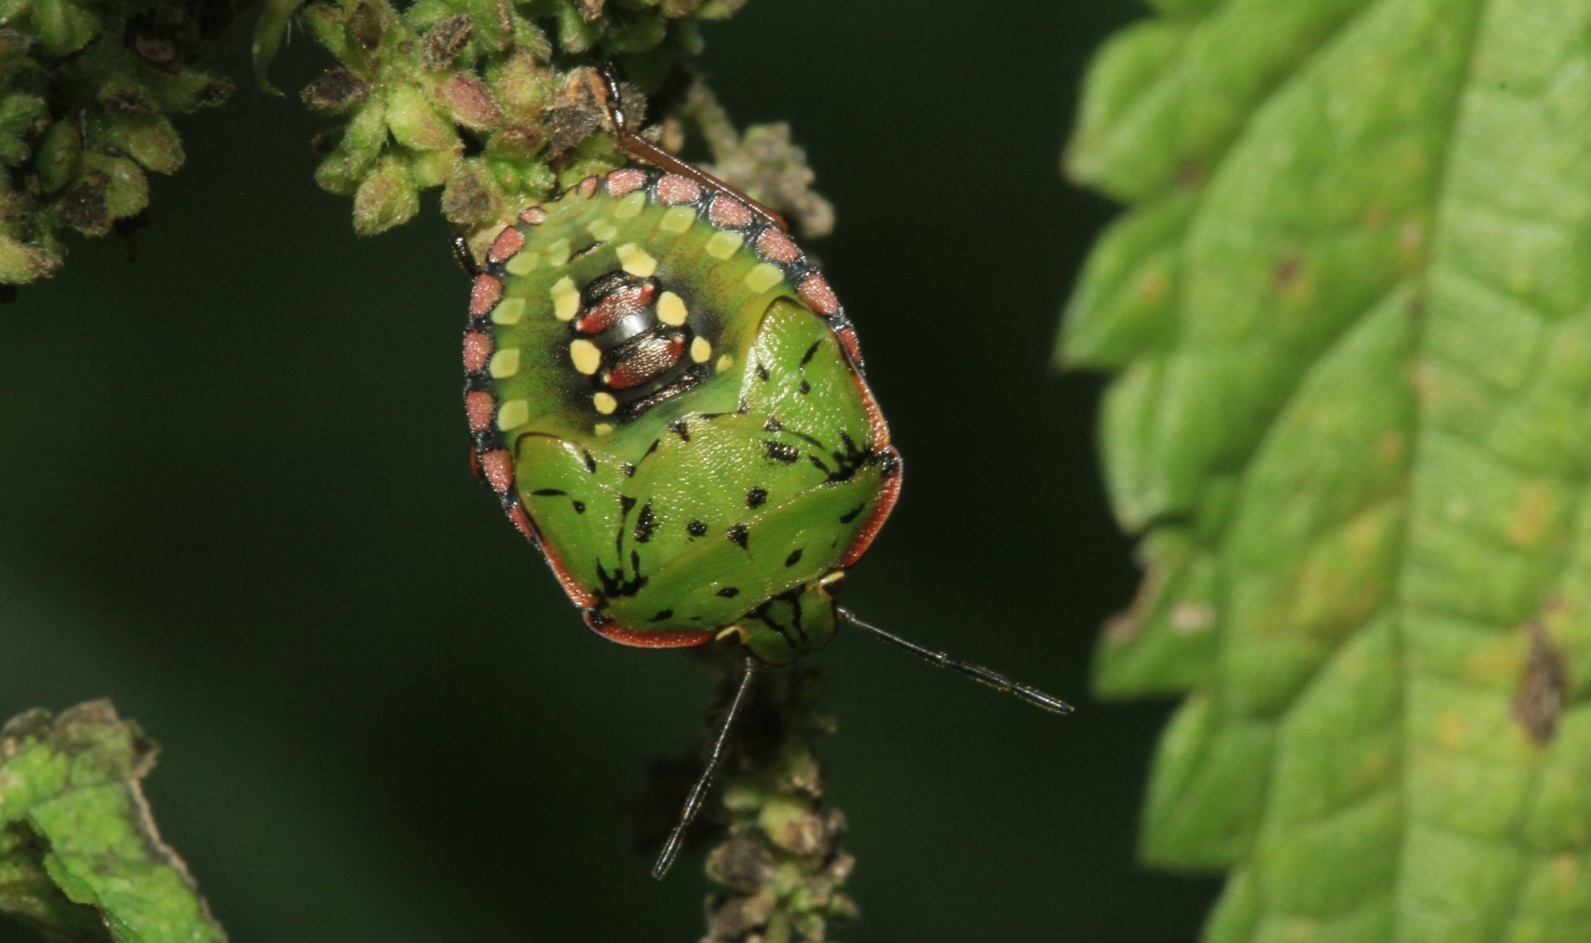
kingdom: Animalia
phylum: Arthropoda
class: Insecta
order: Hemiptera
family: Pentatomidae
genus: Nezara
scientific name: Nezara viridula
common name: Southern green stink bug
